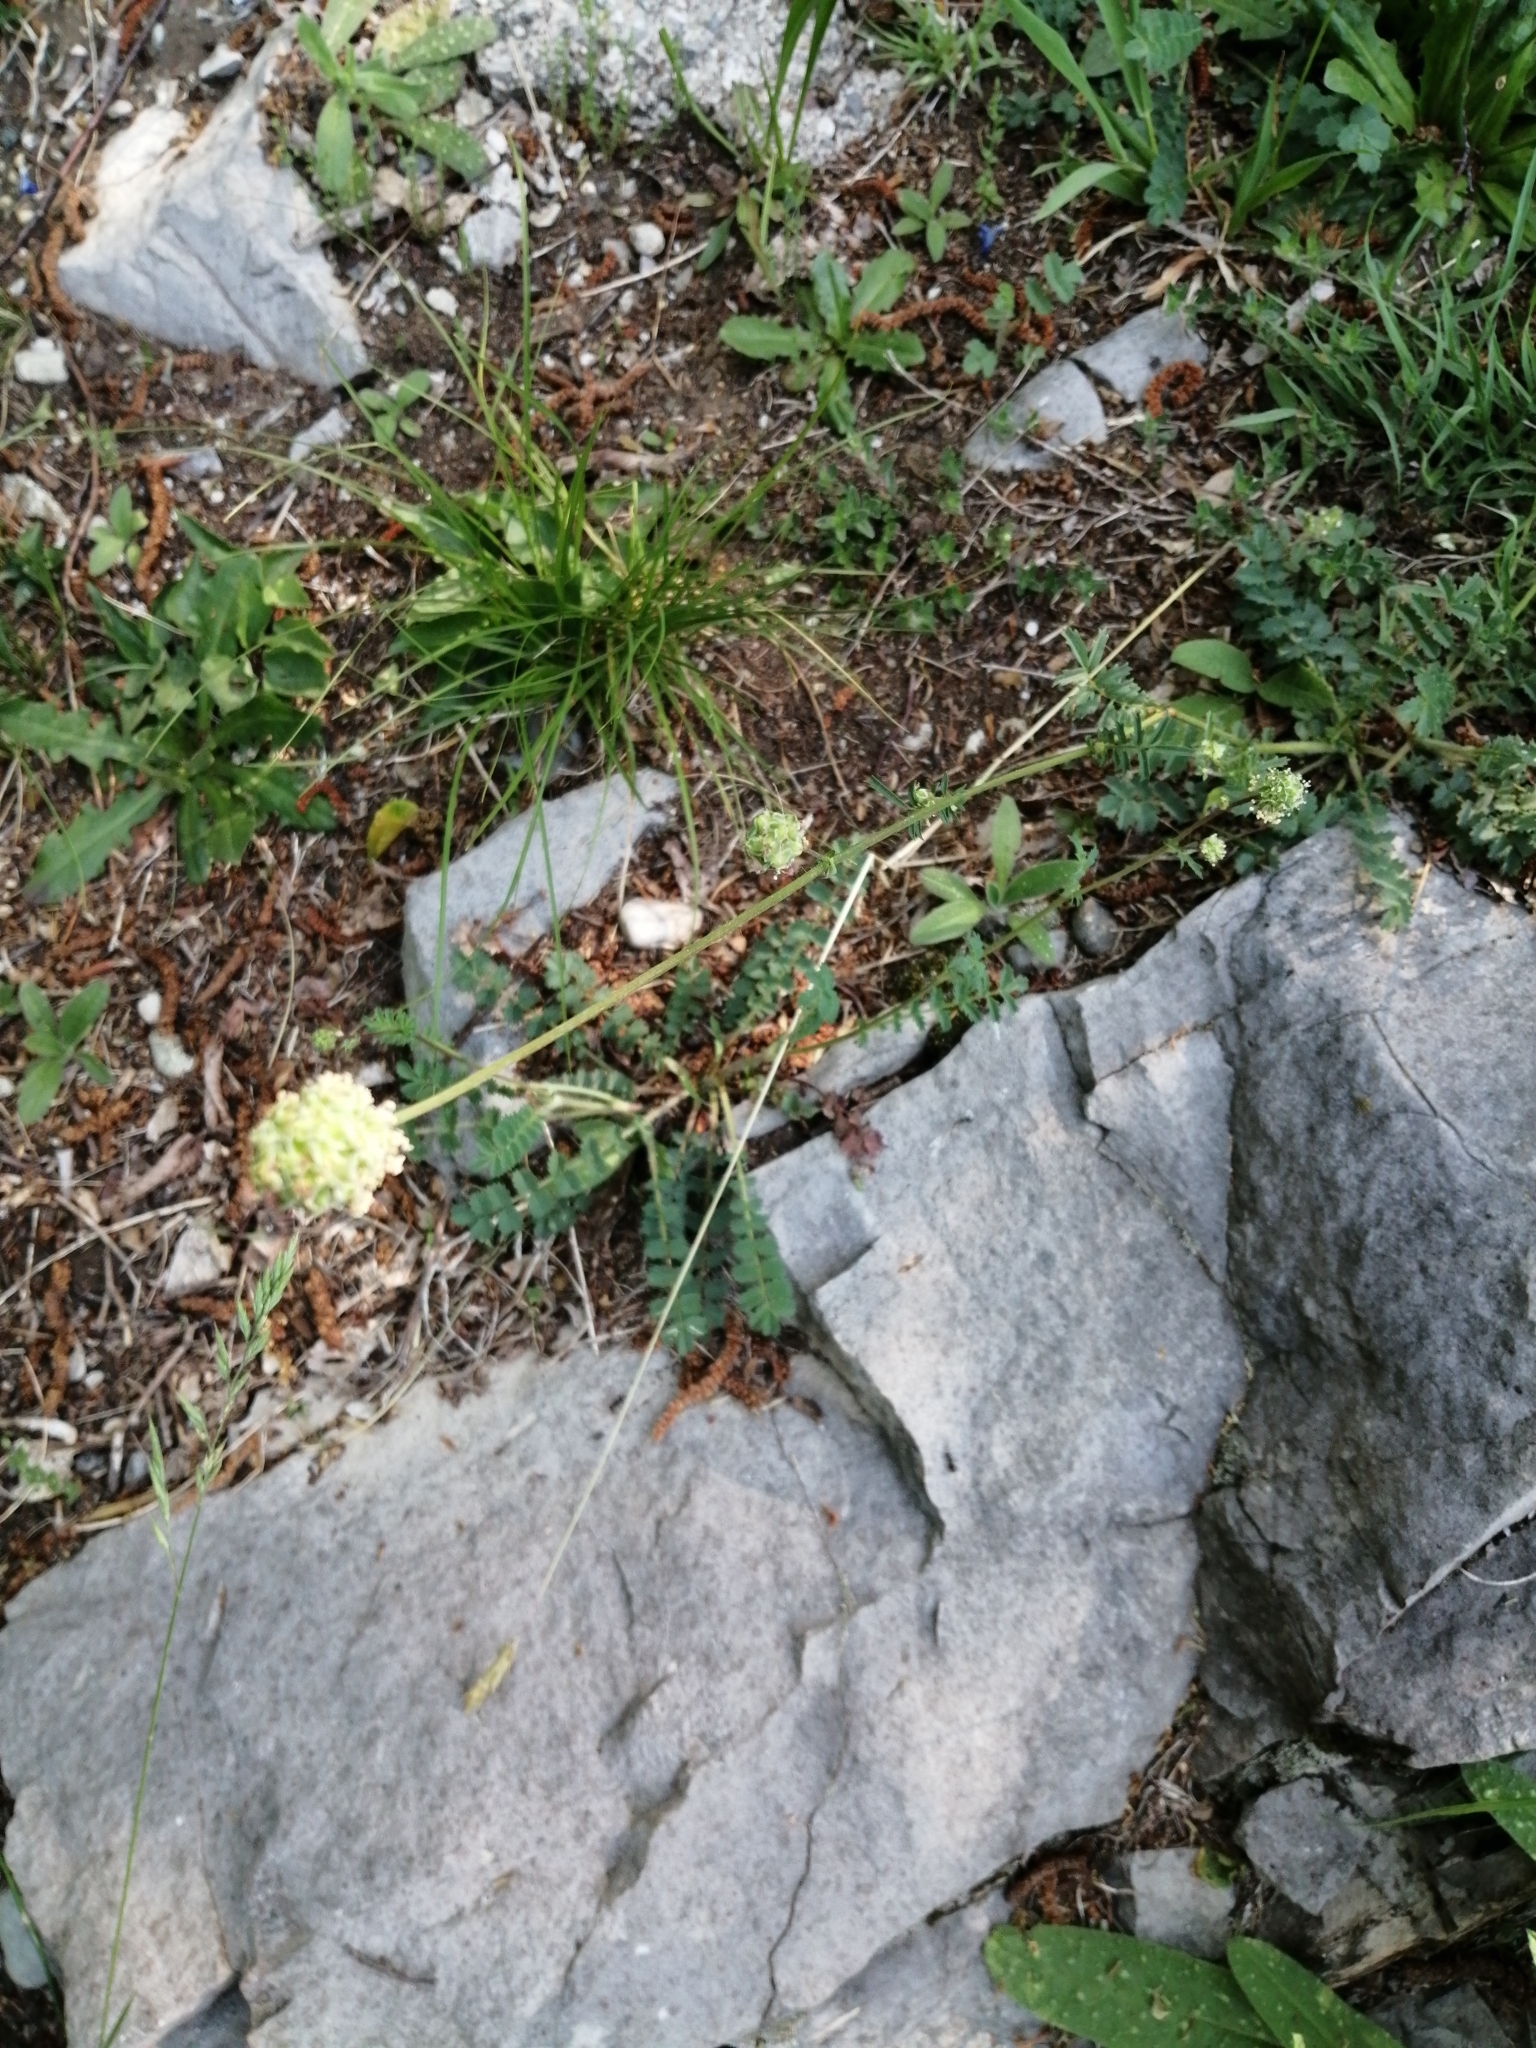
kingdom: Plantae
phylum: Tracheophyta
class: Magnoliopsida
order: Rosales
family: Rosaceae
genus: Poterium
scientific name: Poterium sanguisorba
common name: Salad burnet
